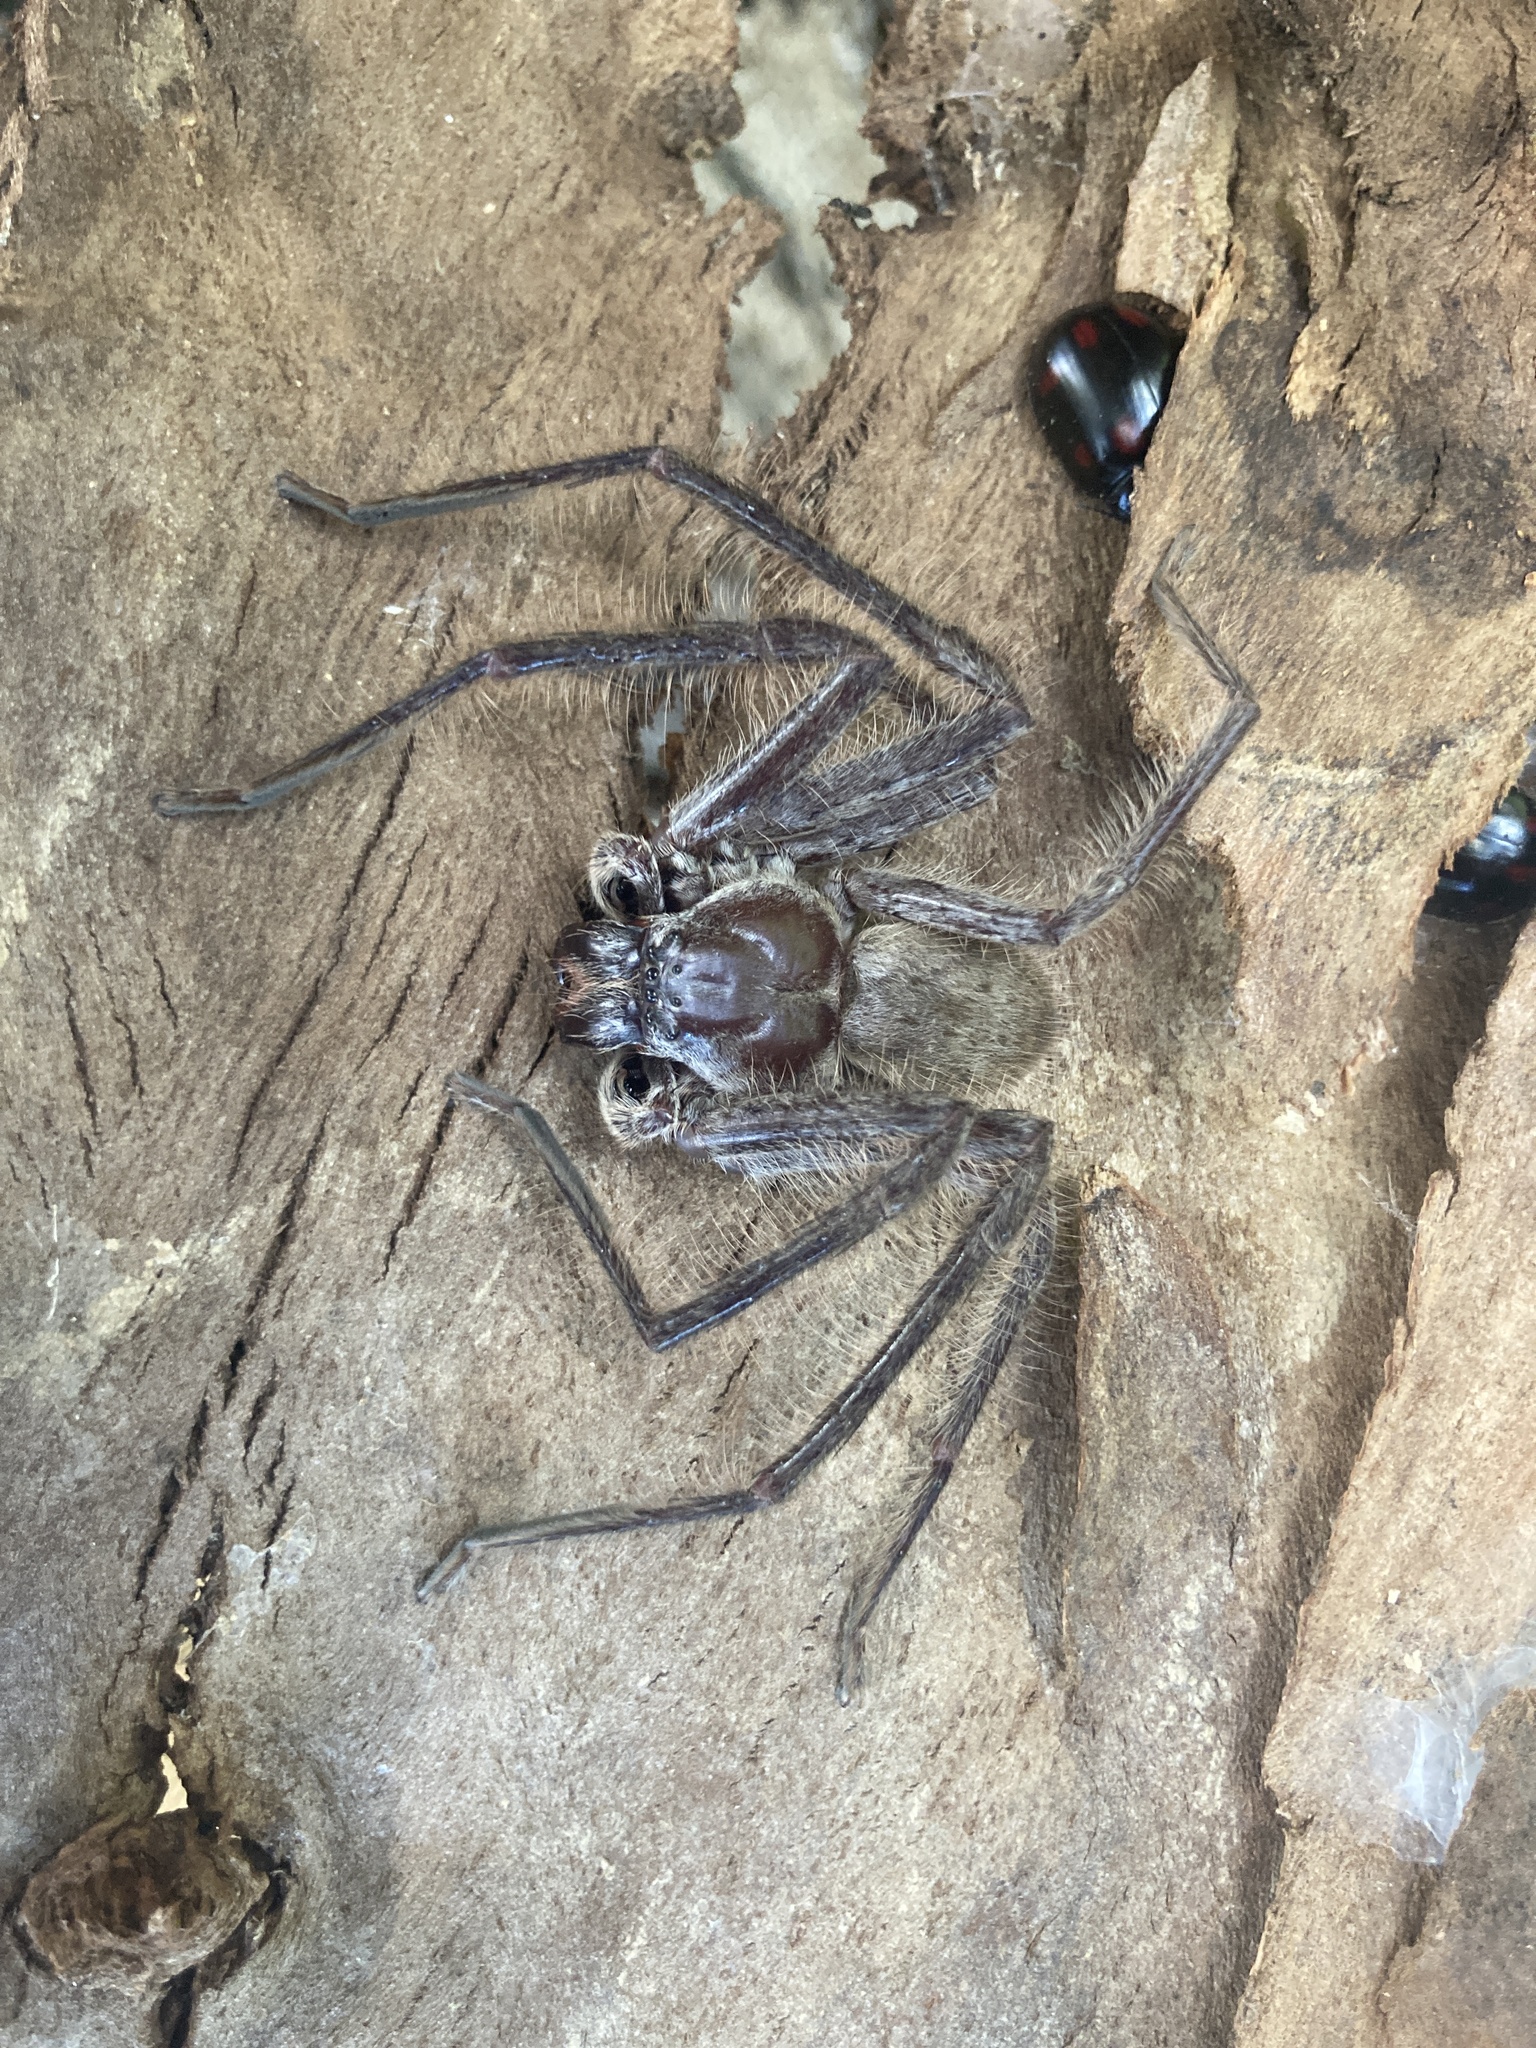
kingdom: Animalia
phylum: Arthropoda
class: Arachnida
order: Araneae
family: Sparassidae
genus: Isopeda
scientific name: Isopeda villosa
